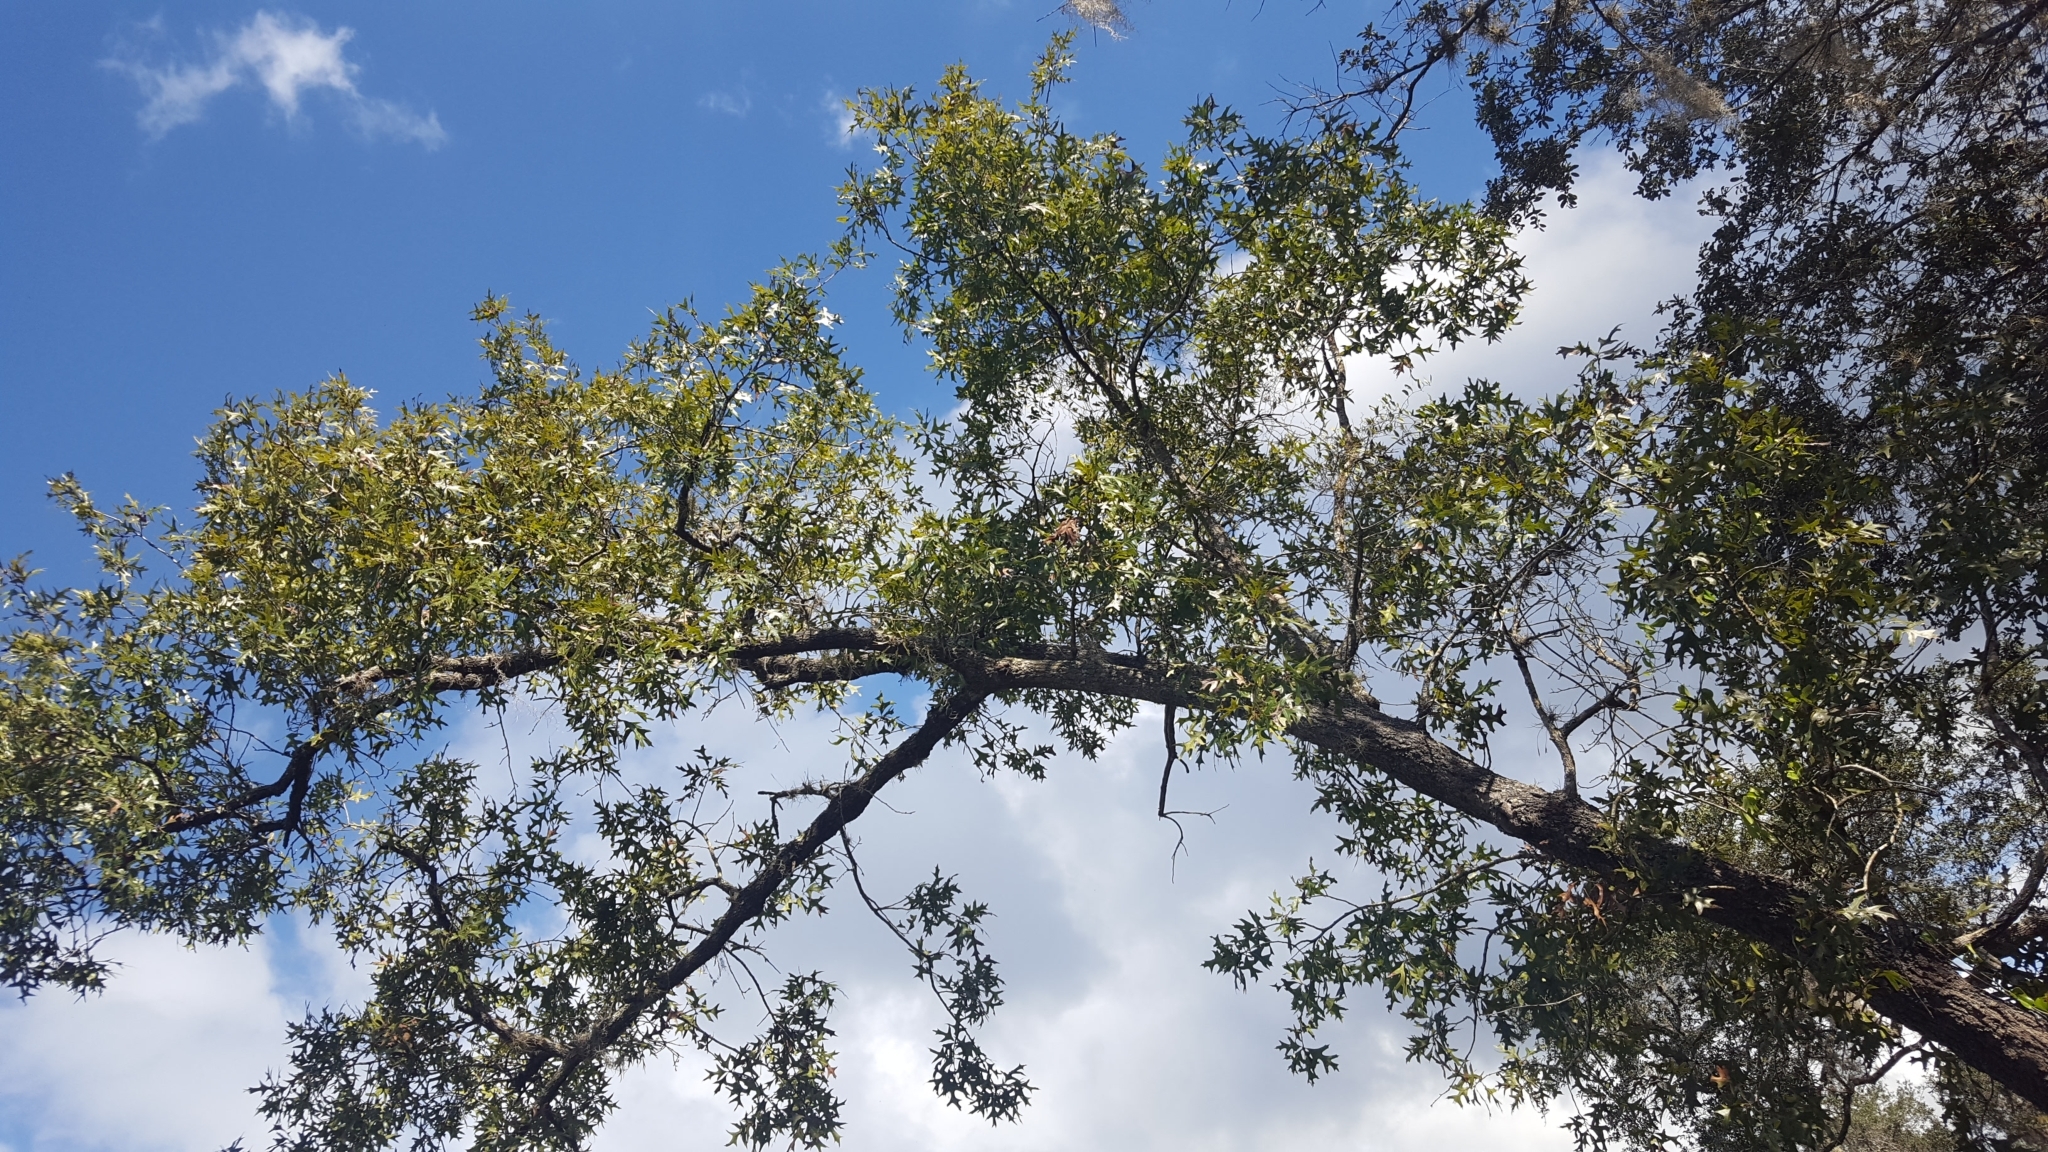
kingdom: Plantae
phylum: Tracheophyta
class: Magnoliopsida
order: Fagales
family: Fagaceae
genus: Quercus
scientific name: Quercus laevis
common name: Turkey oak
